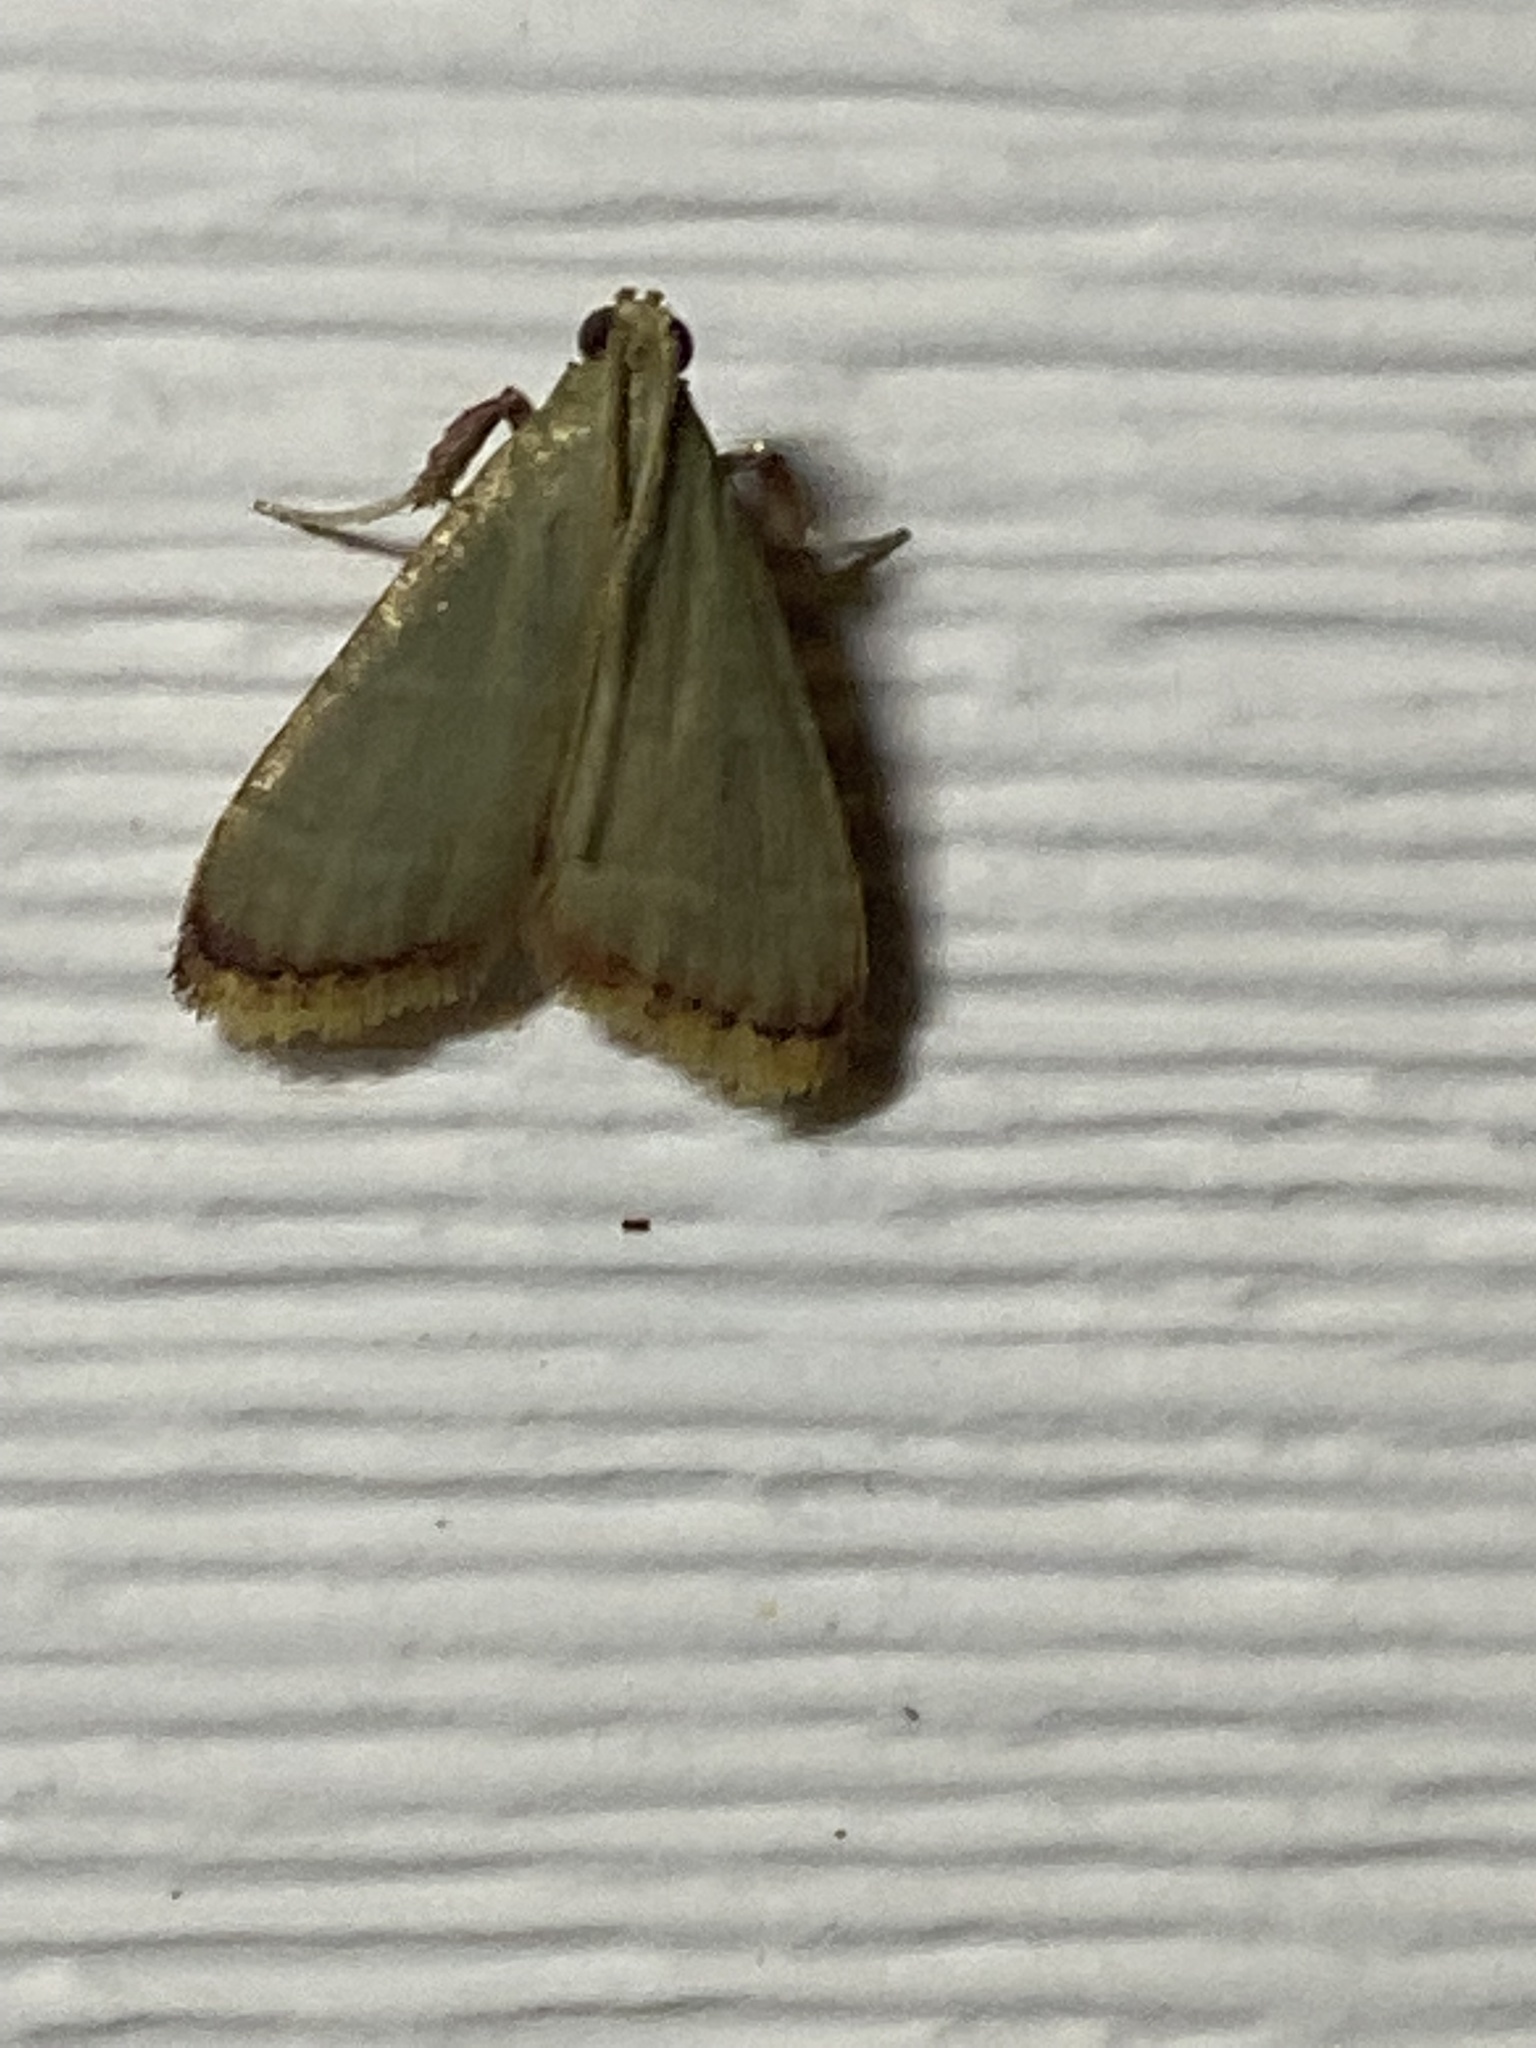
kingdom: Animalia
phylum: Arthropoda
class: Insecta
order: Lepidoptera
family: Pyralidae
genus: Arta
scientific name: Arta olivalis
